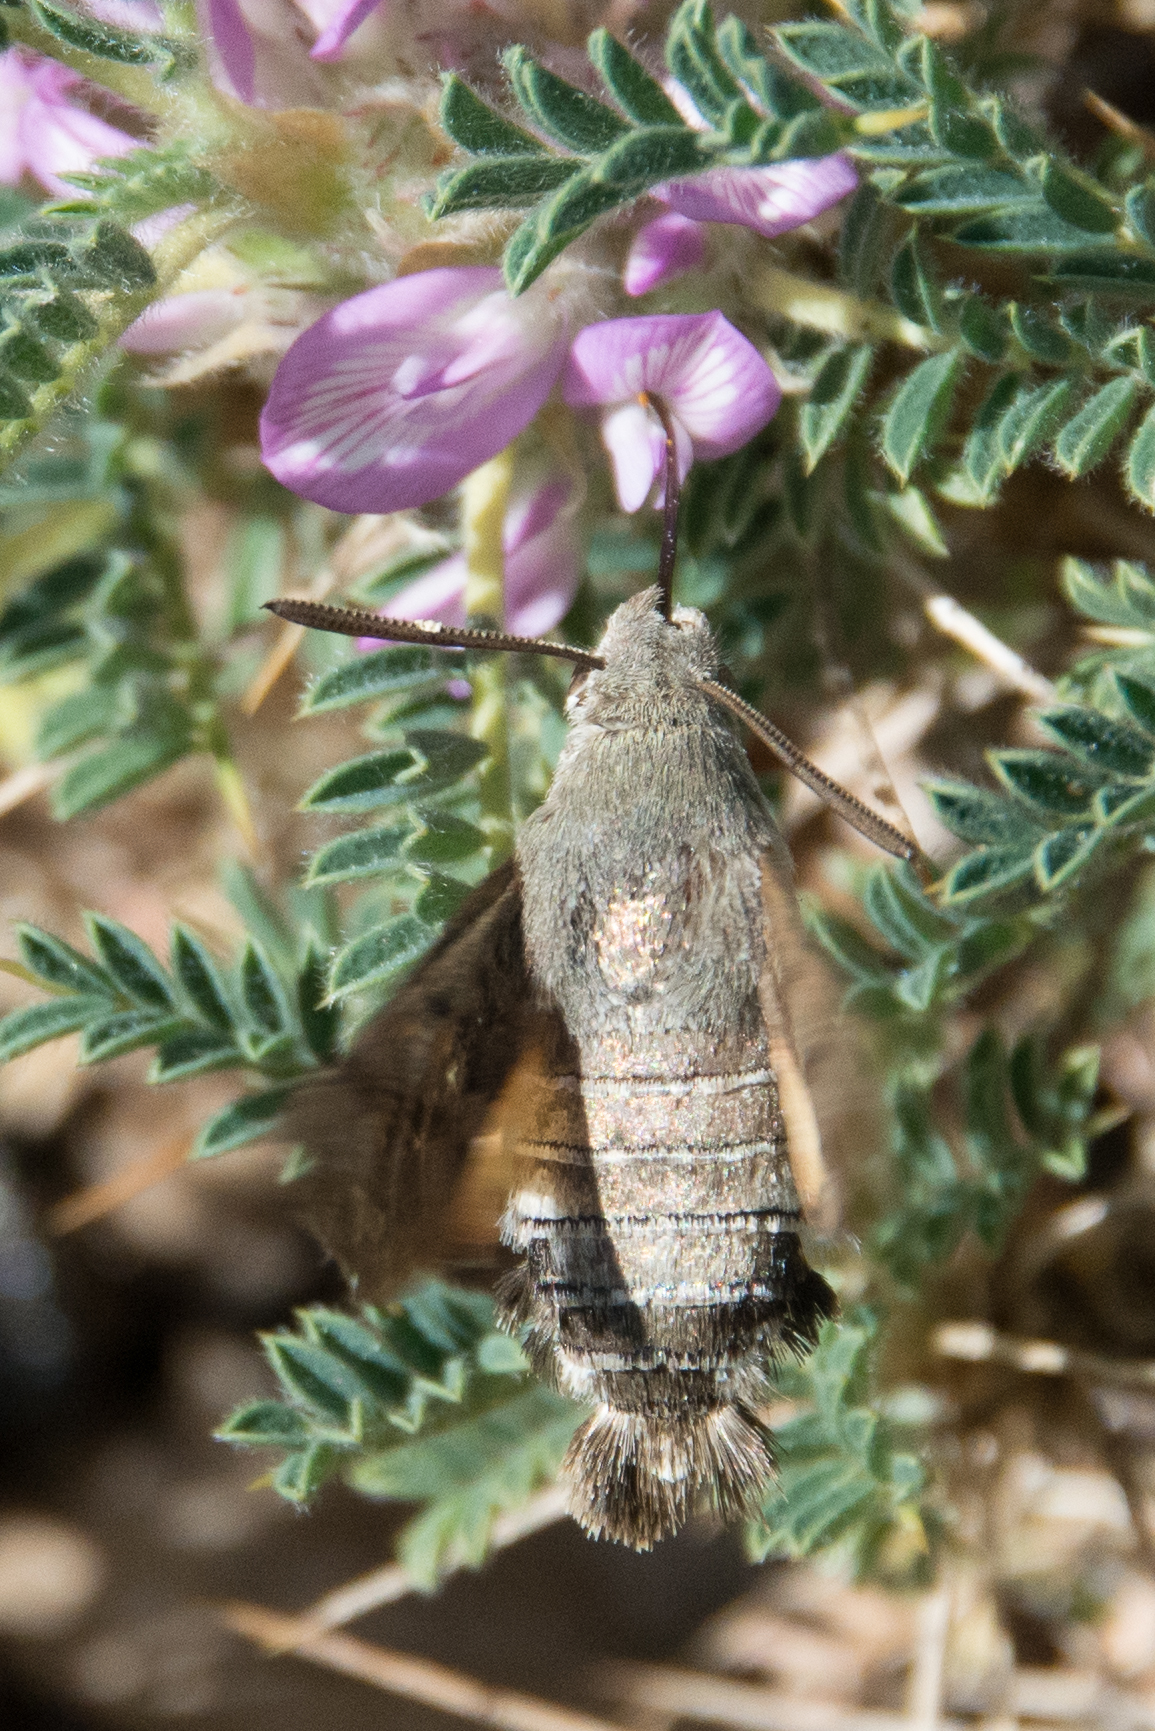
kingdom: Animalia
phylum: Arthropoda
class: Insecta
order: Lepidoptera
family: Sphingidae
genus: Macroglossum
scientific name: Macroglossum stellatarum
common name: Humming-bird hawk-moth
